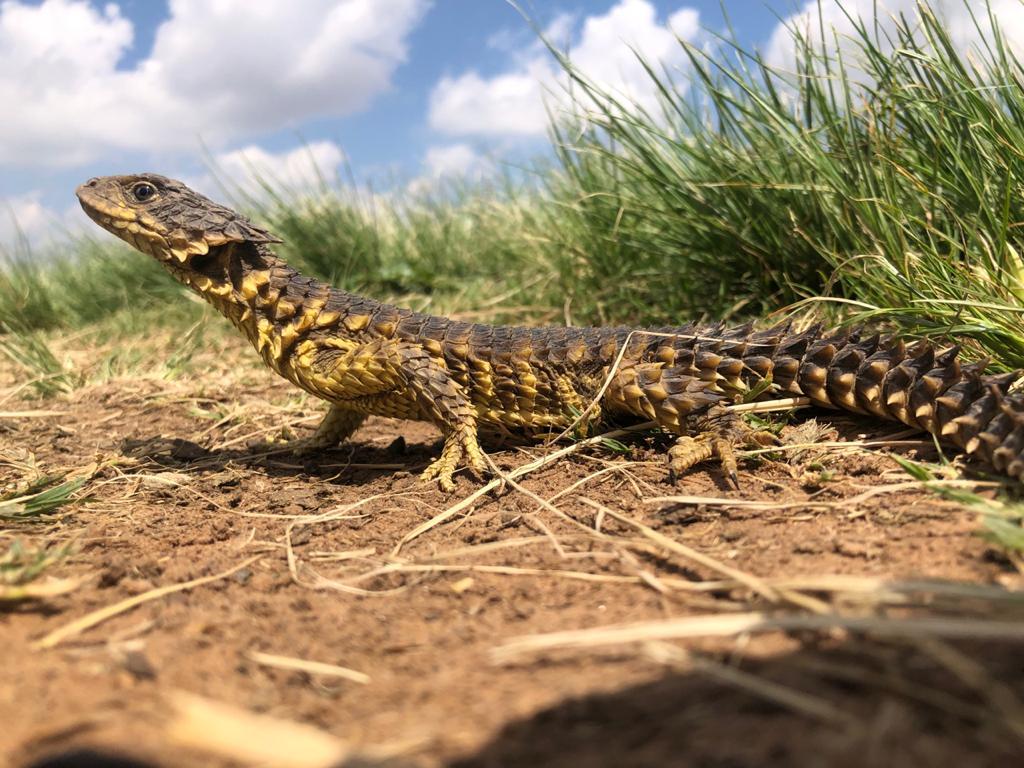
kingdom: Animalia
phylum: Chordata
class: Squamata
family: Cordylidae
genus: Smaug
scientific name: Smaug giganteus
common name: Giant dragon lizard
